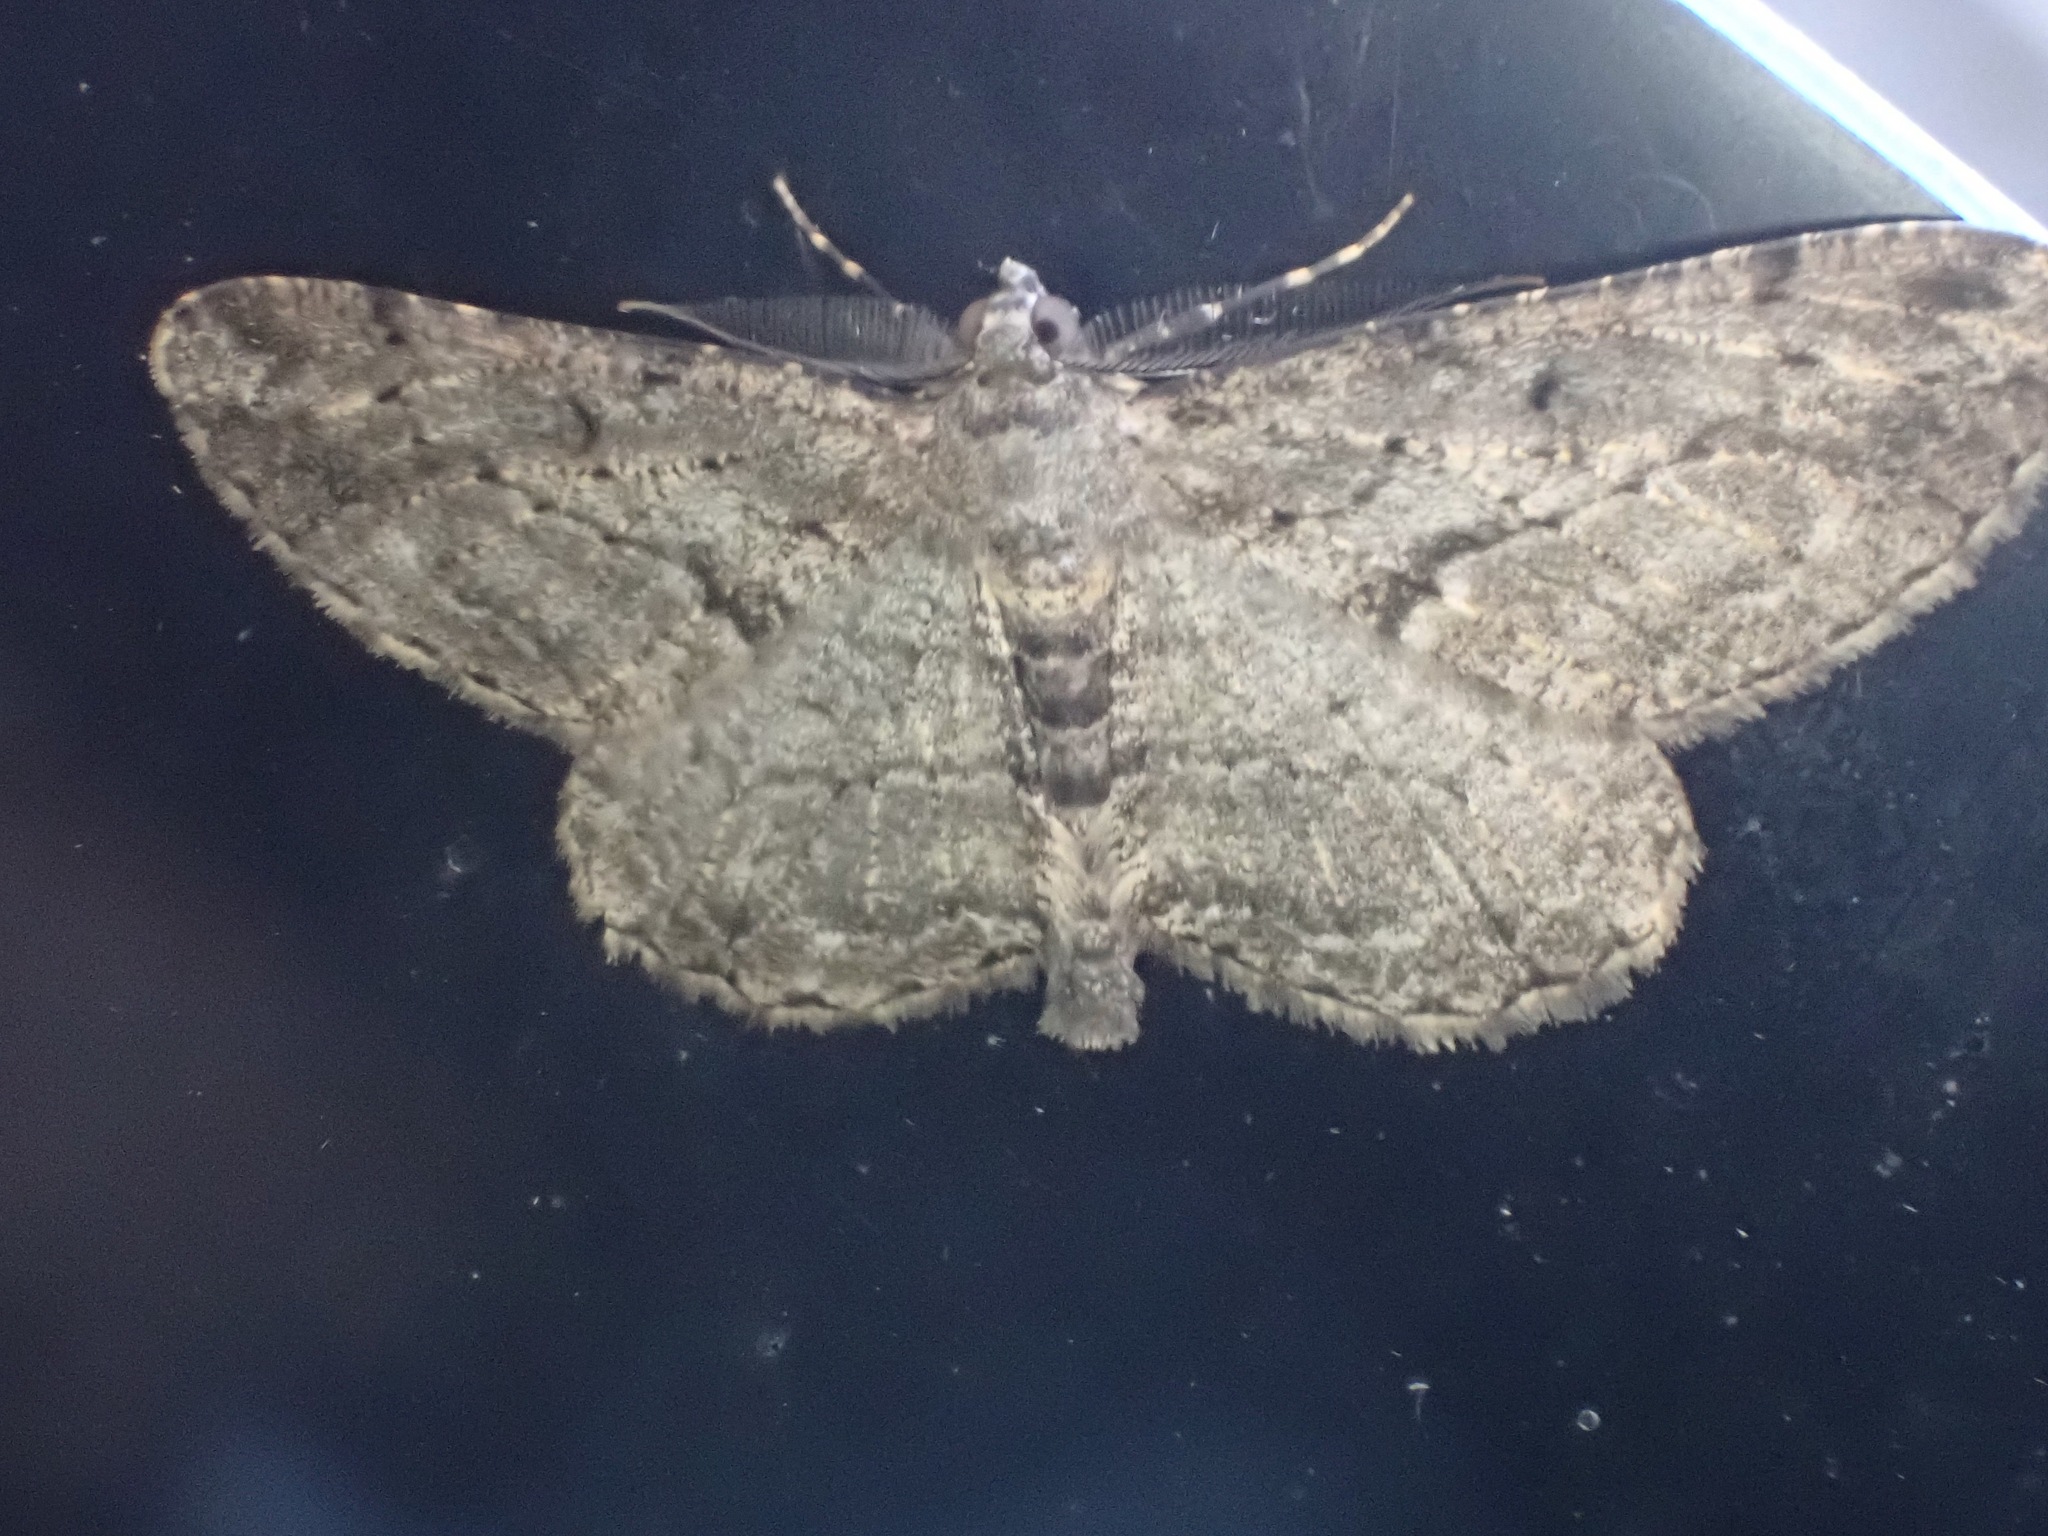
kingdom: Animalia
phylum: Arthropoda
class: Insecta
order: Lepidoptera
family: Geometridae
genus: Peribatodes
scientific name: Peribatodes rhomboidaria
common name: Willow beauty
